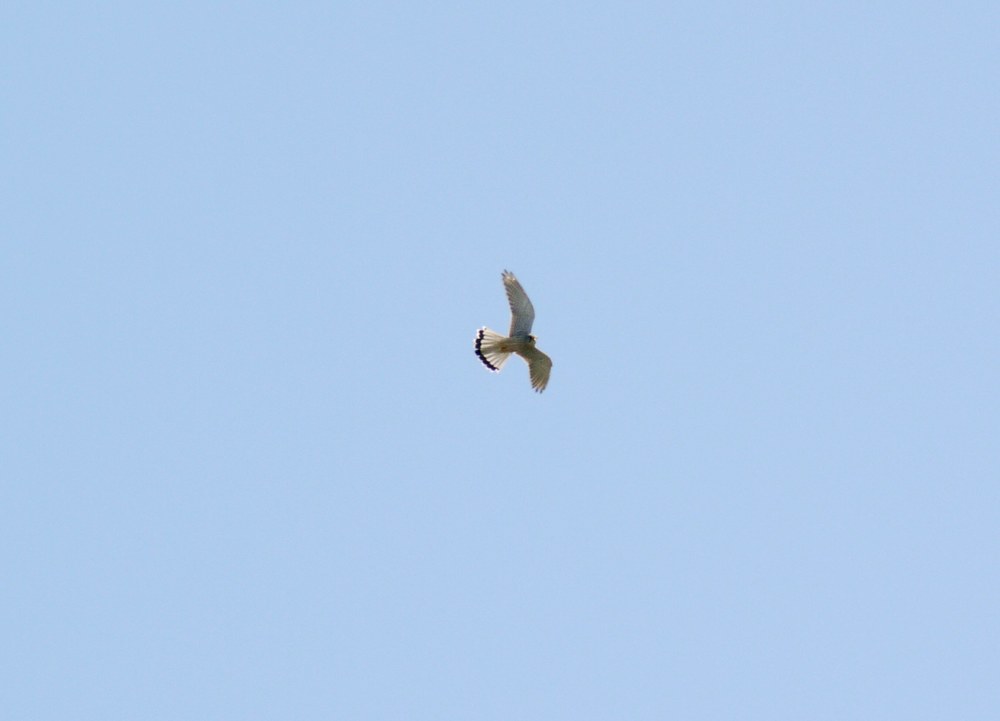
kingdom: Animalia
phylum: Chordata
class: Aves
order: Falconiformes
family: Falconidae
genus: Falco
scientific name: Falco tinnunculus
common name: Common kestrel
